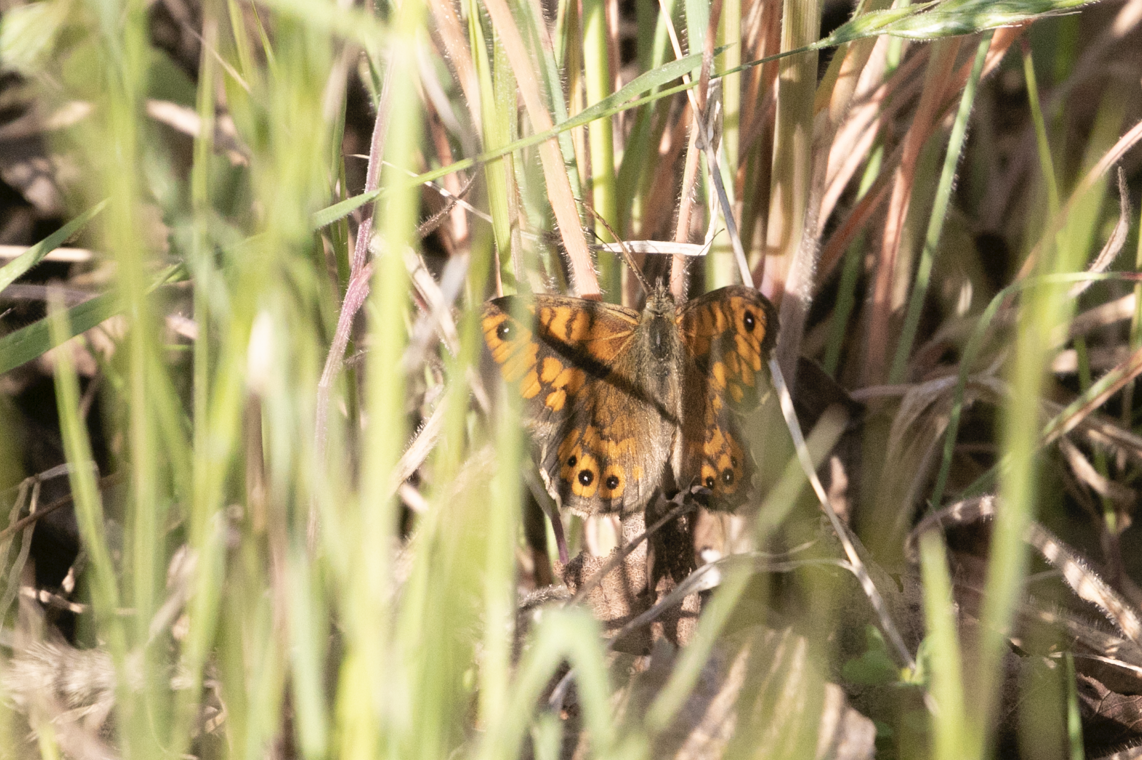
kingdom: Animalia
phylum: Arthropoda
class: Insecta
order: Lepidoptera
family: Nymphalidae
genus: Pararge
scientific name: Pararge Lasiommata megera
